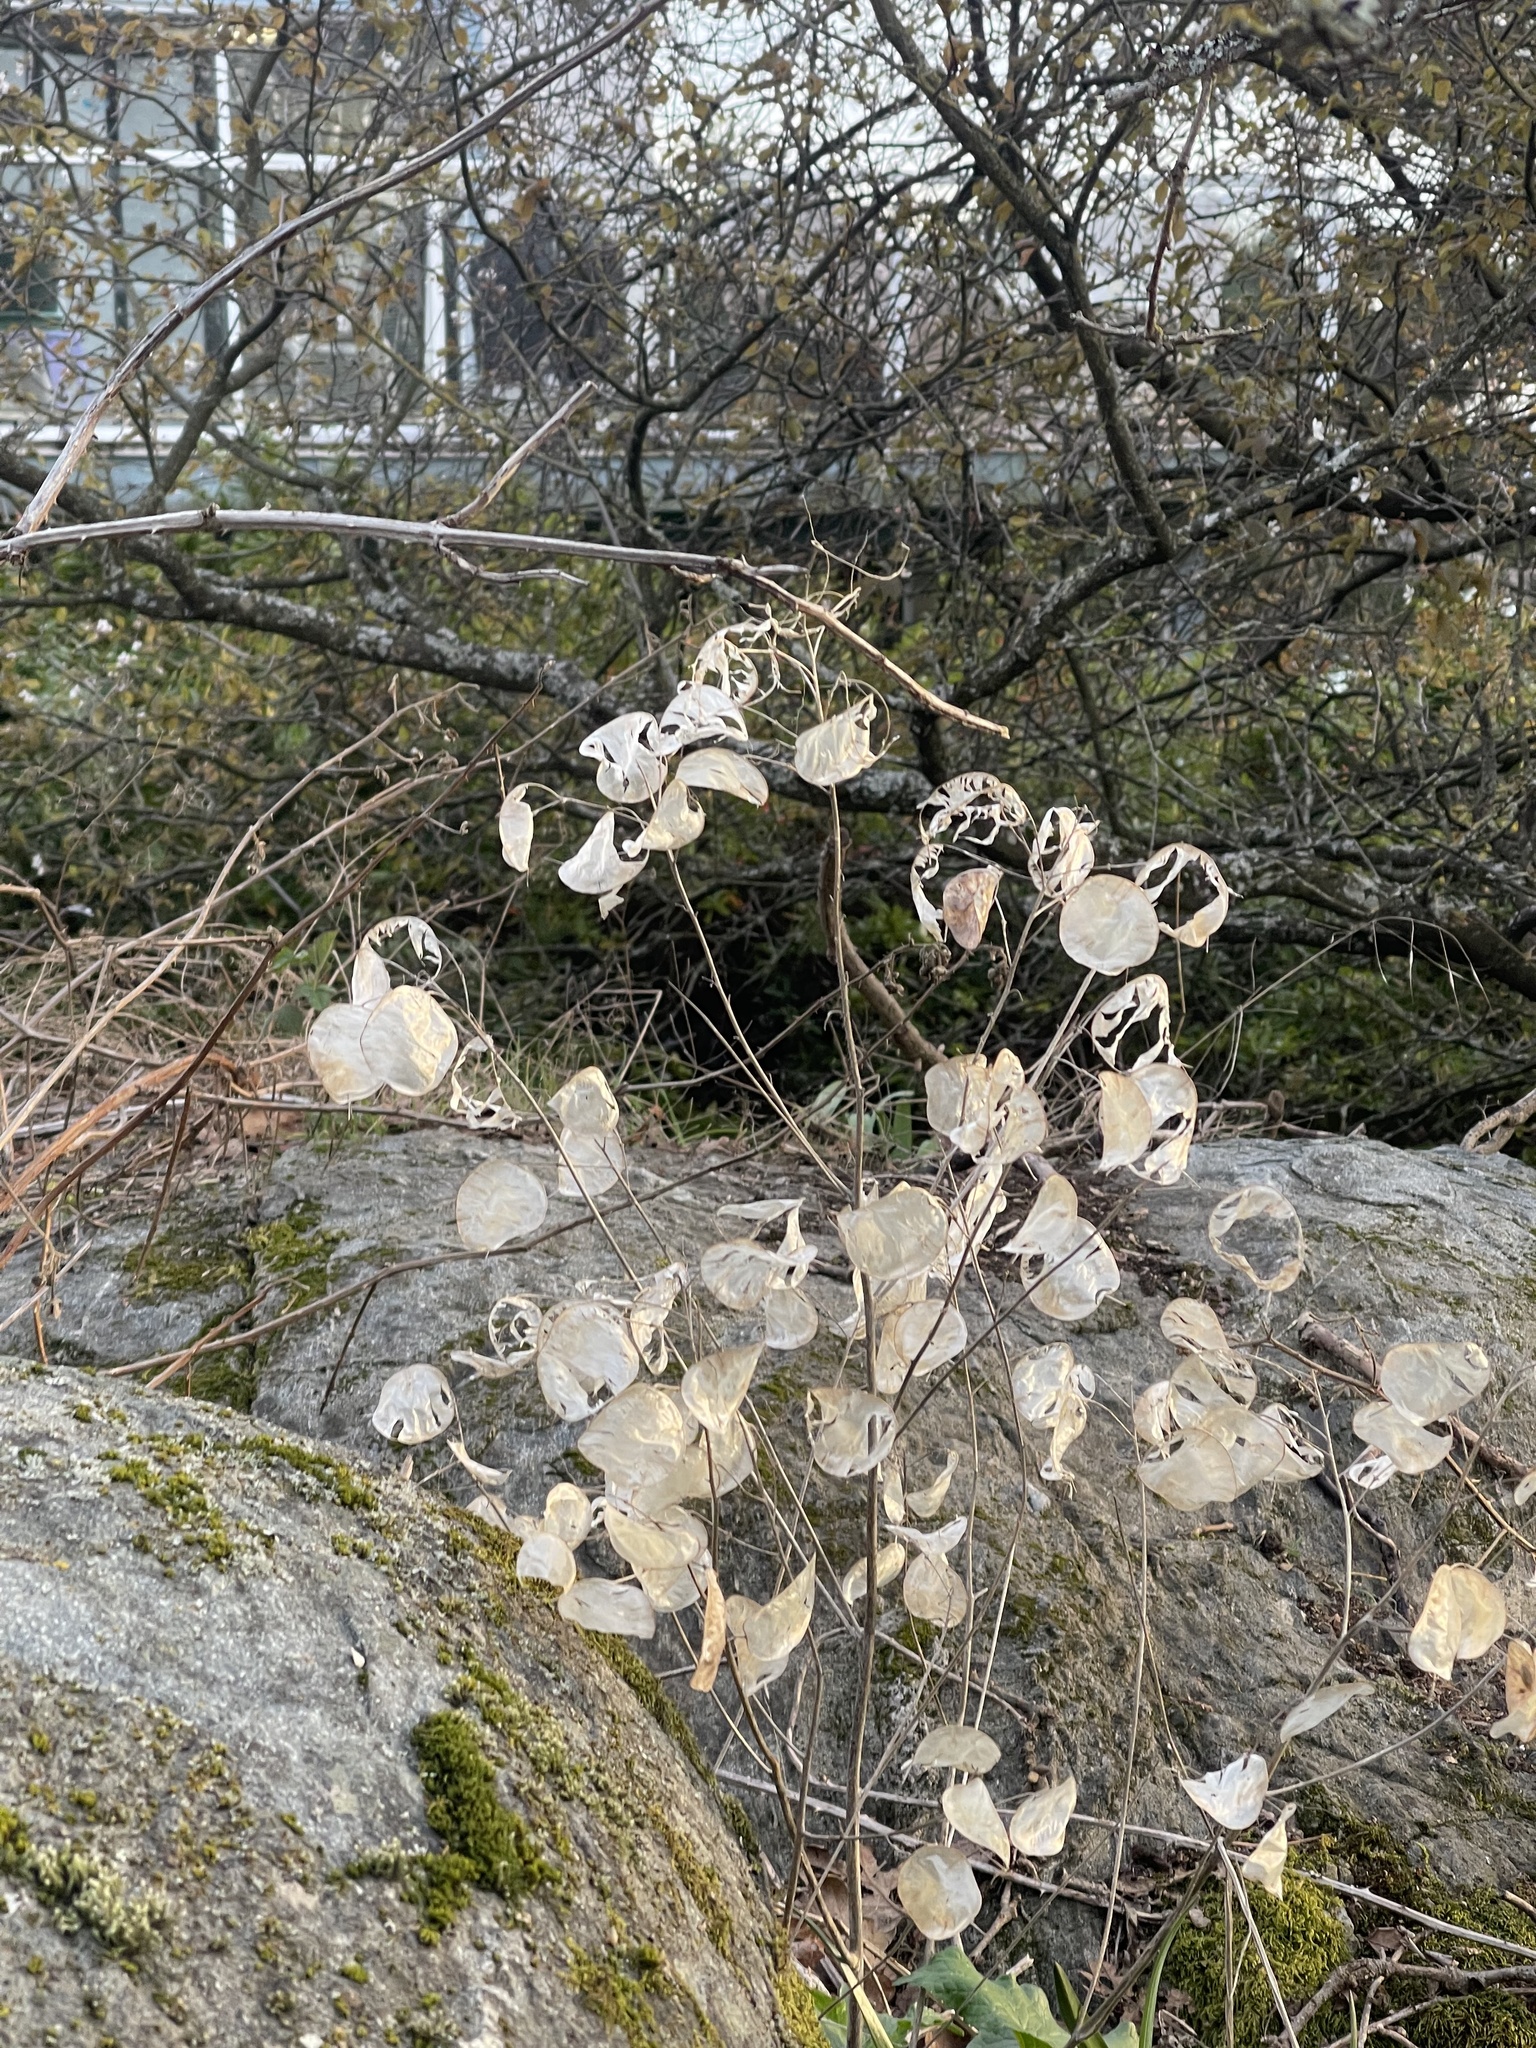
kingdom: Plantae
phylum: Tracheophyta
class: Magnoliopsida
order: Brassicales
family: Brassicaceae
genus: Lunaria
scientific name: Lunaria annua
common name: Honesty
